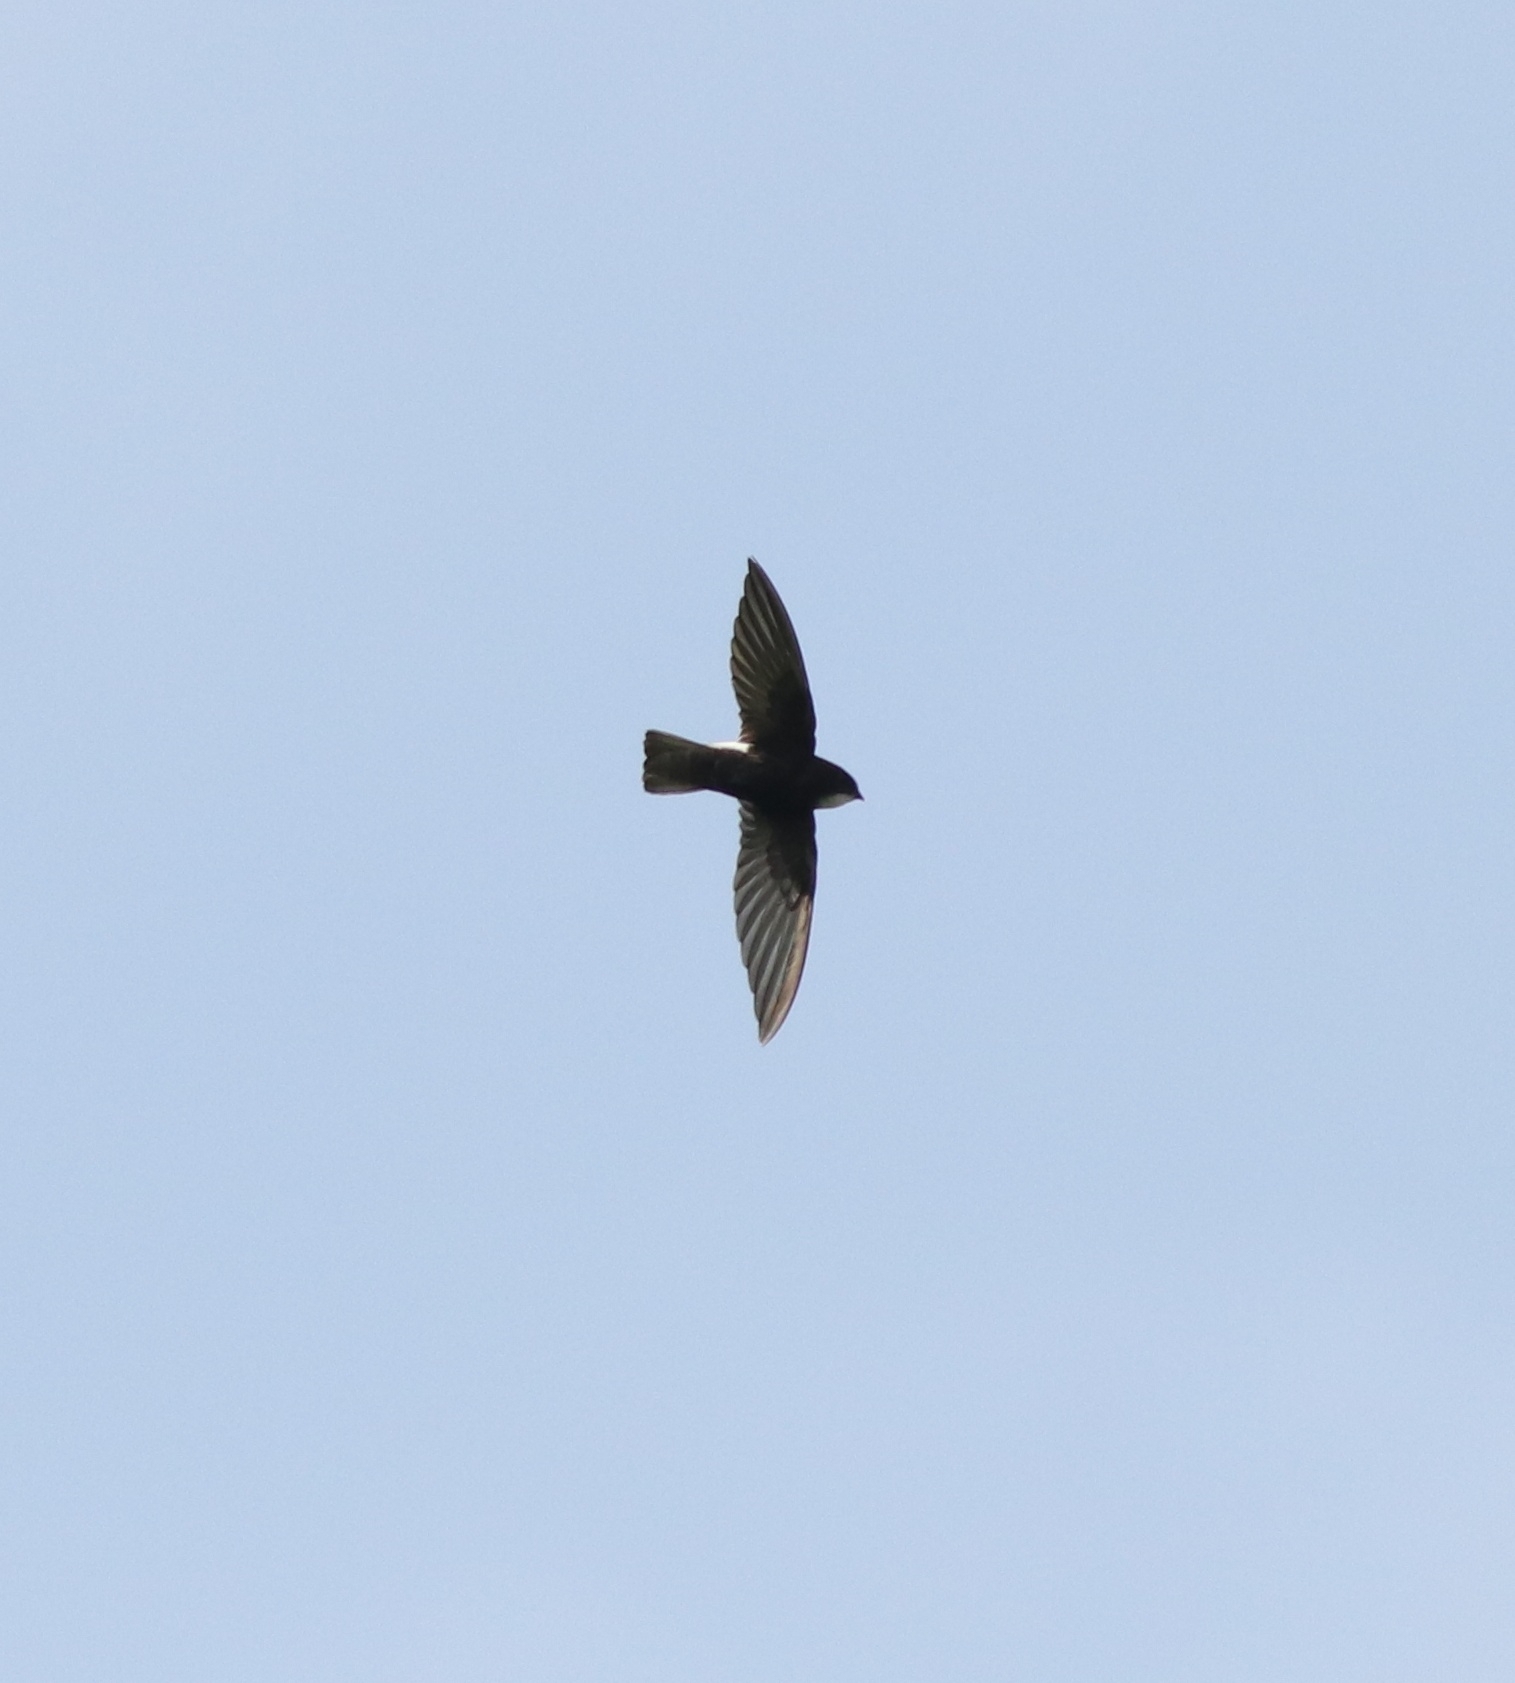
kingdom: Animalia
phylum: Chordata
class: Aves
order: Apodiformes
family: Apodidae
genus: Apus
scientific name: Apus affinis
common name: Little swift
